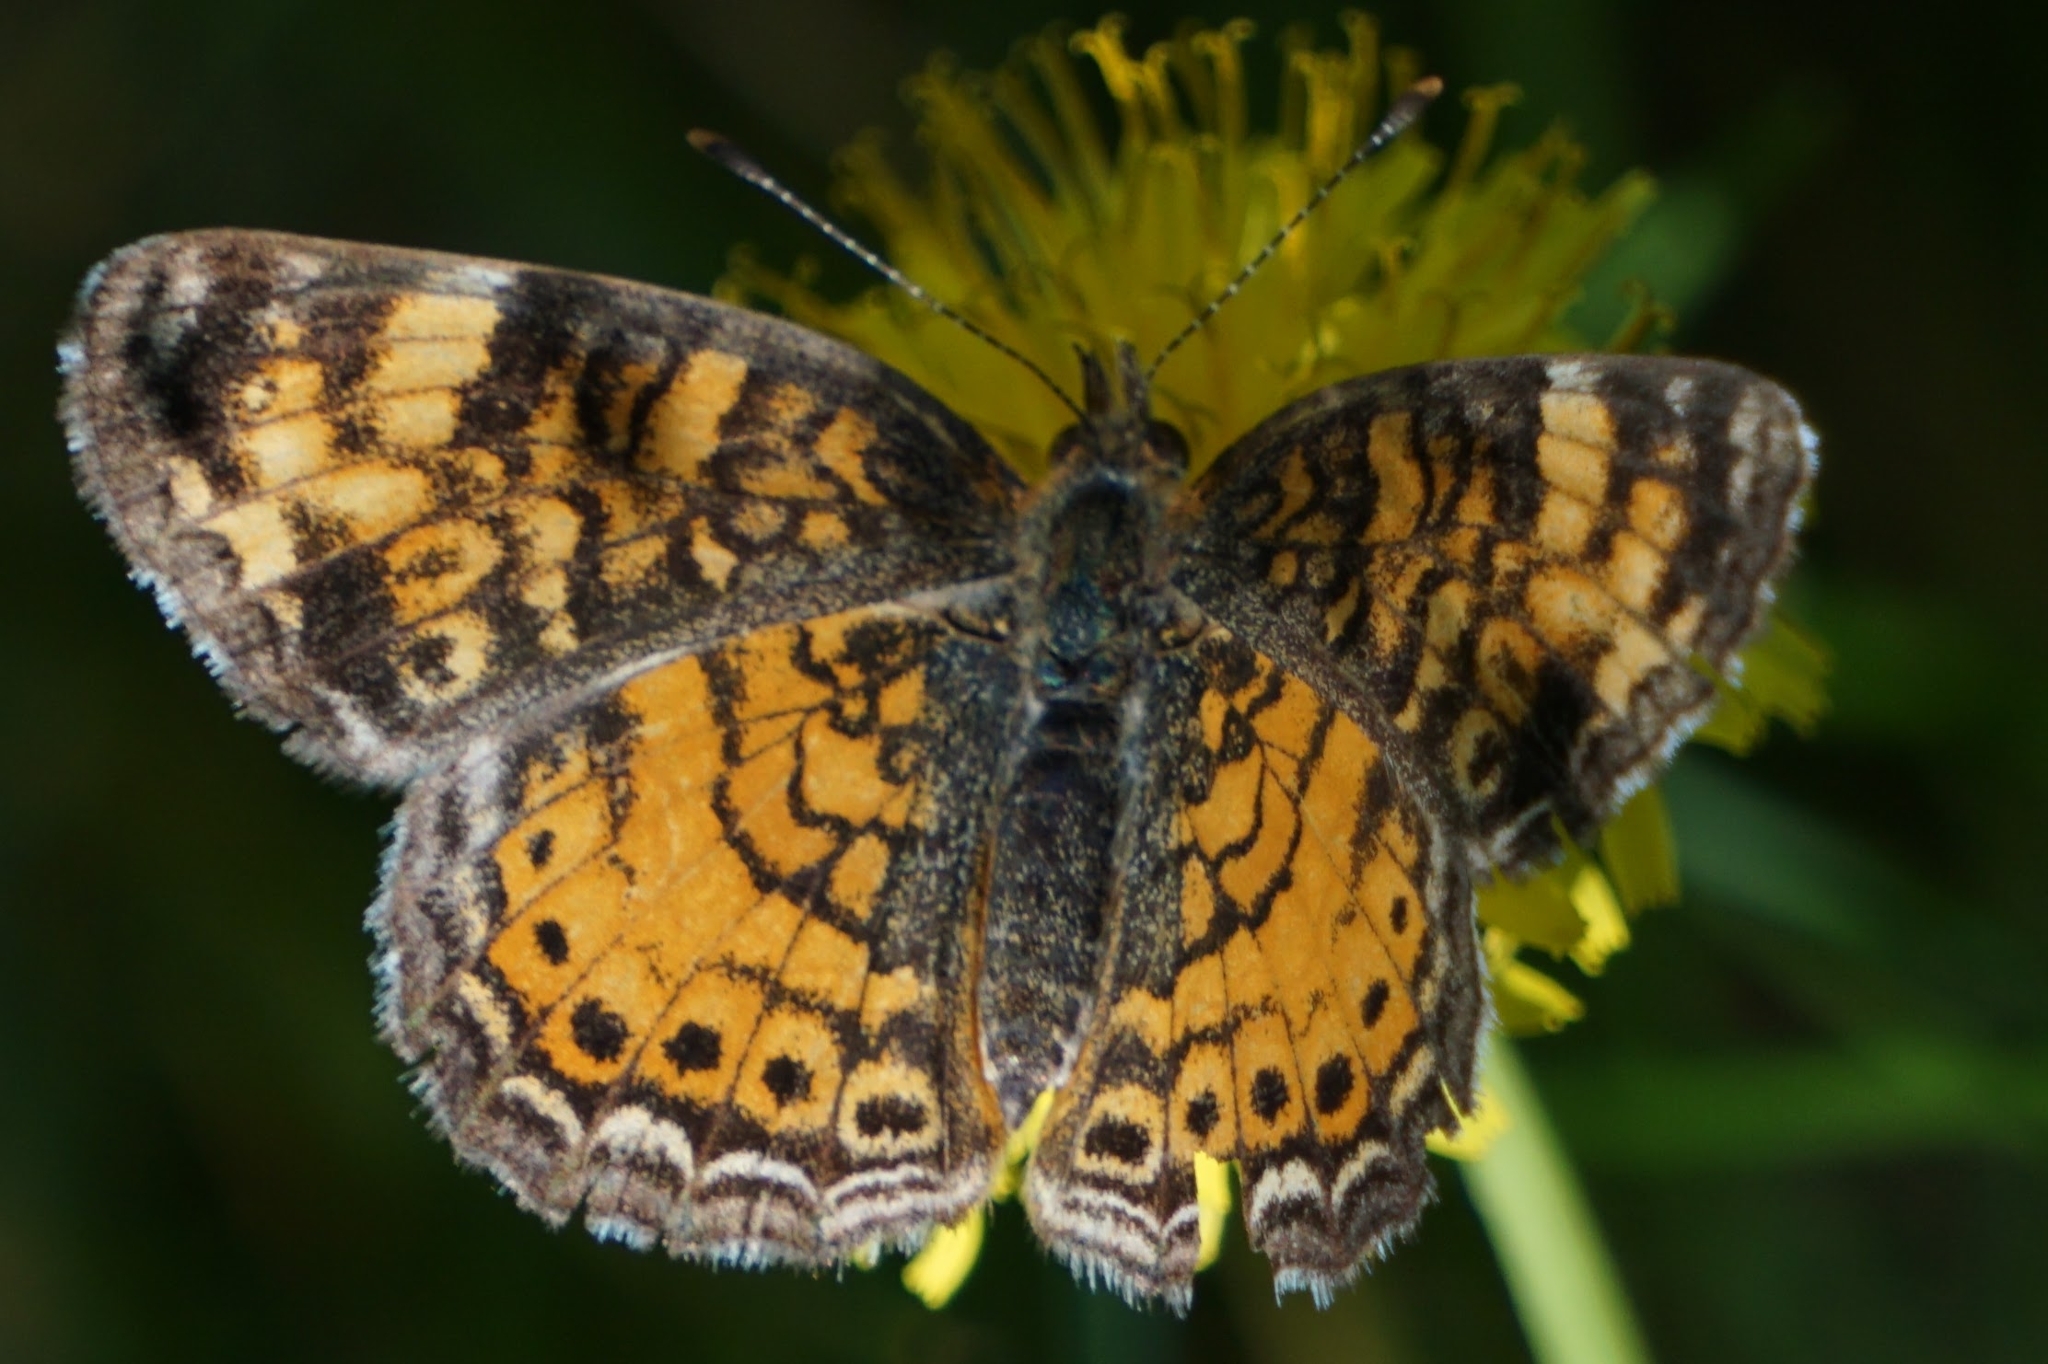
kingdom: Animalia
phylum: Arthropoda
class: Insecta
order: Lepidoptera
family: Nymphalidae
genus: Phyciodes
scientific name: Phyciodes tharos
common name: Pearl crescent
